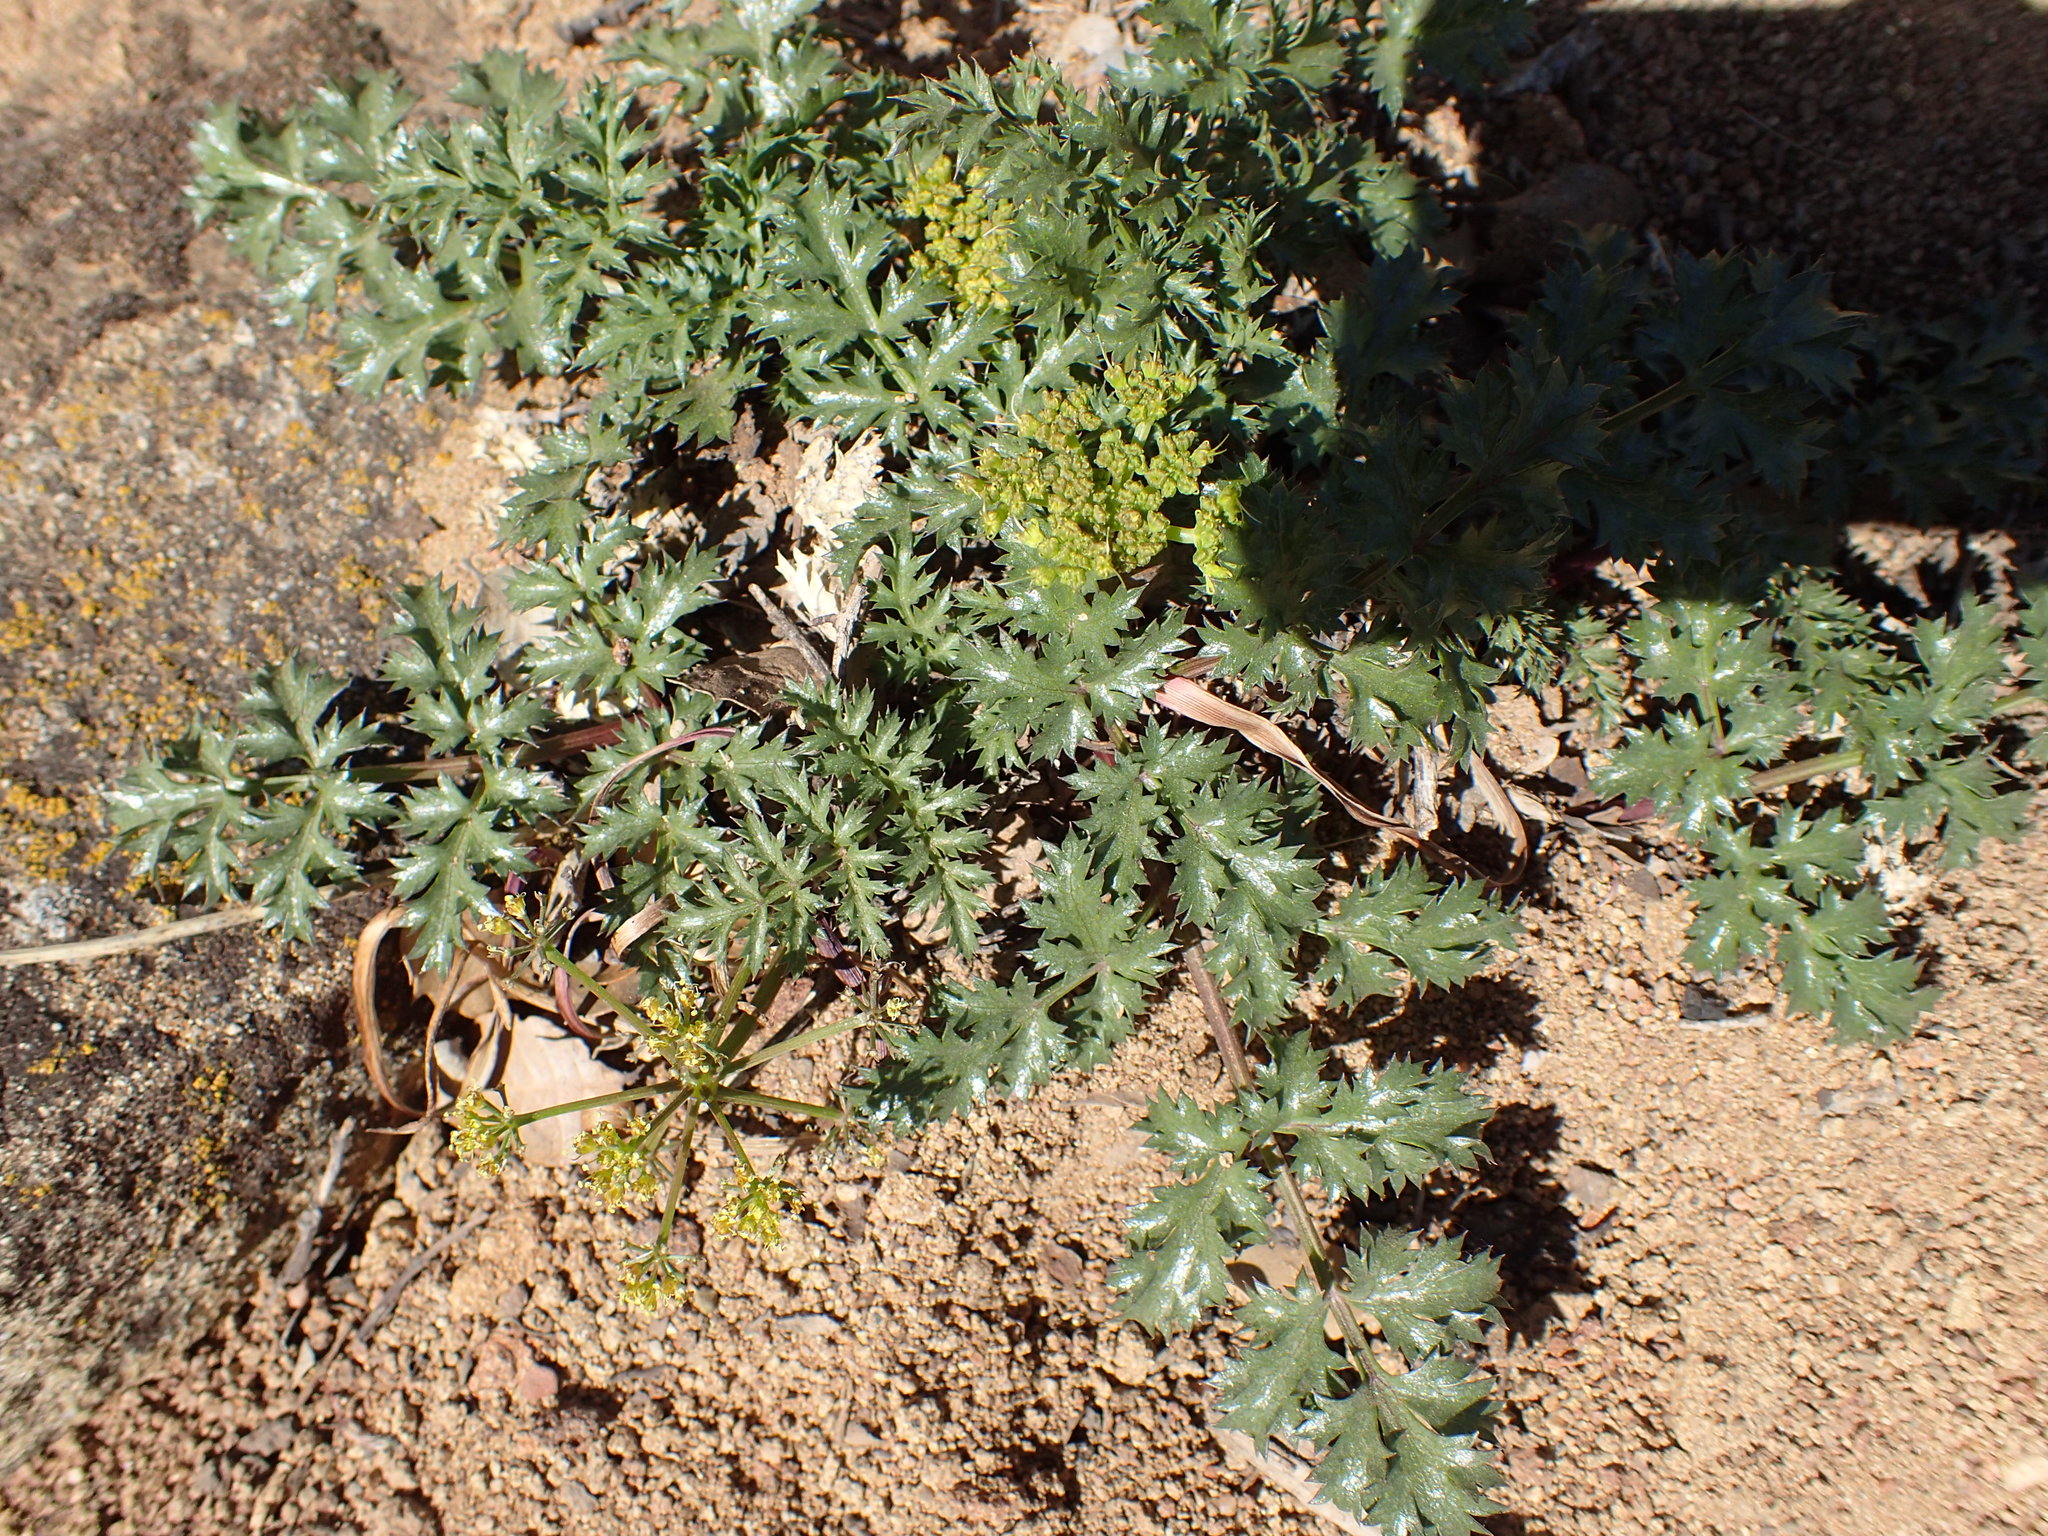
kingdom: Plantae
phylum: Tracheophyta
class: Magnoliopsida
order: Apiales
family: Apiaceae
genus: Tauschia
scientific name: Tauschia parishii
